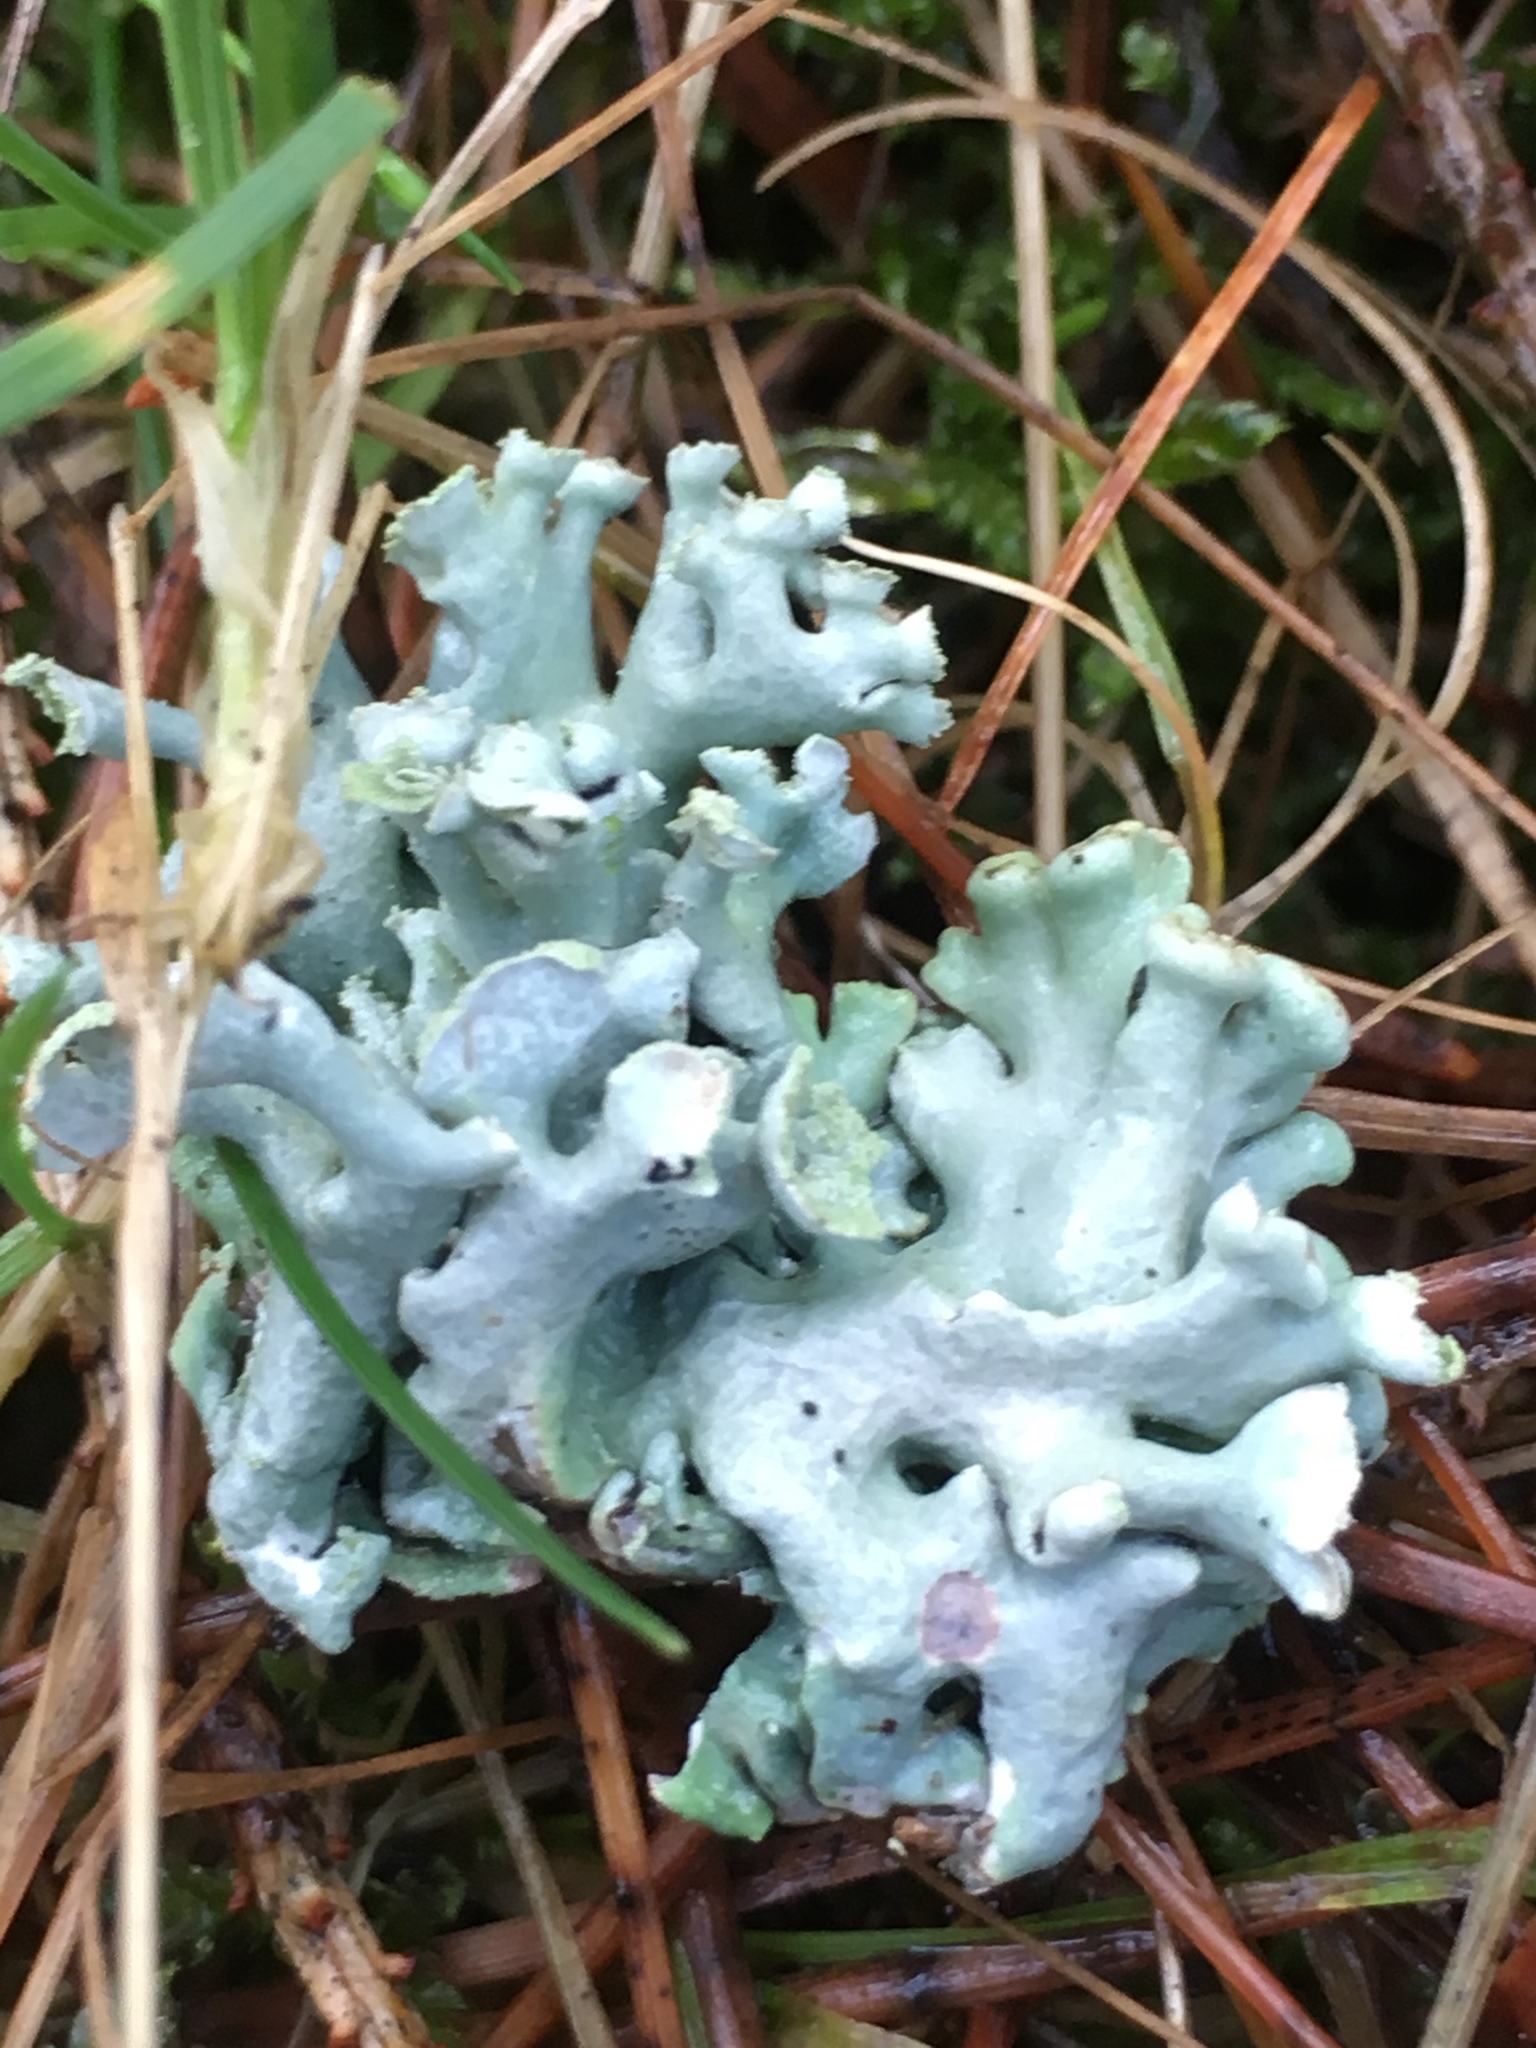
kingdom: Fungi
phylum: Ascomycota
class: Lecanoromycetes
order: Lecanorales
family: Parmeliaceae
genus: Hypogymnia
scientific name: Hypogymnia physodes
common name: Dark crottle
